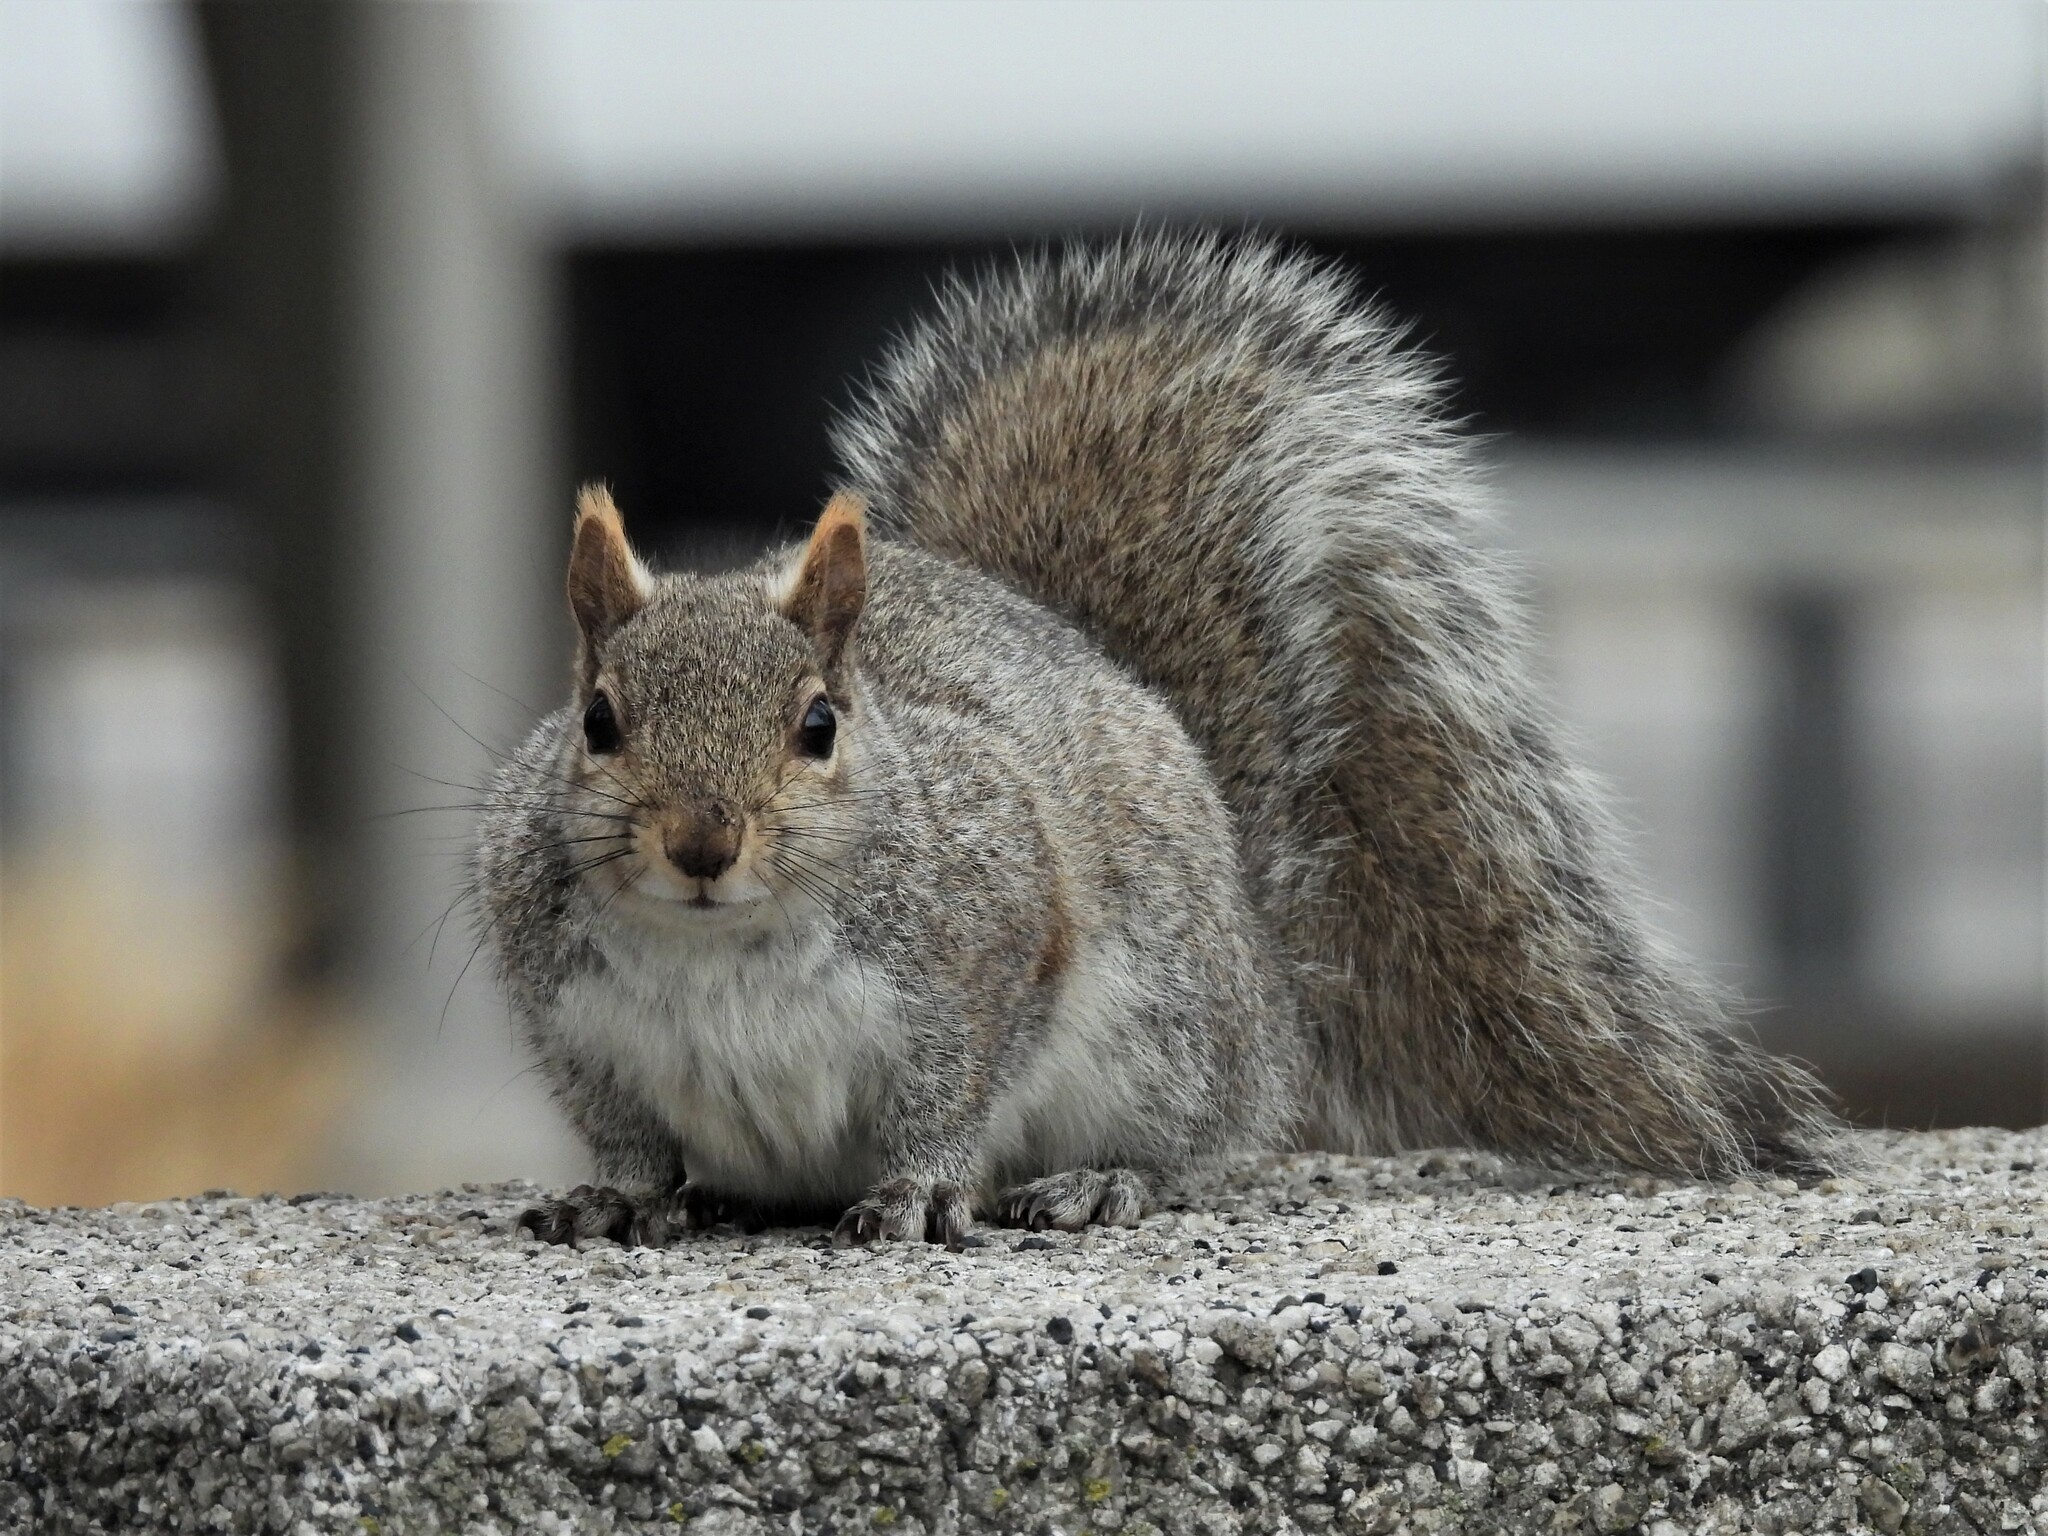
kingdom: Animalia
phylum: Chordata
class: Mammalia
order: Rodentia
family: Sciuridae
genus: Sciurus
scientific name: Sciurus carolinensis
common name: Eastern gray squirrel
